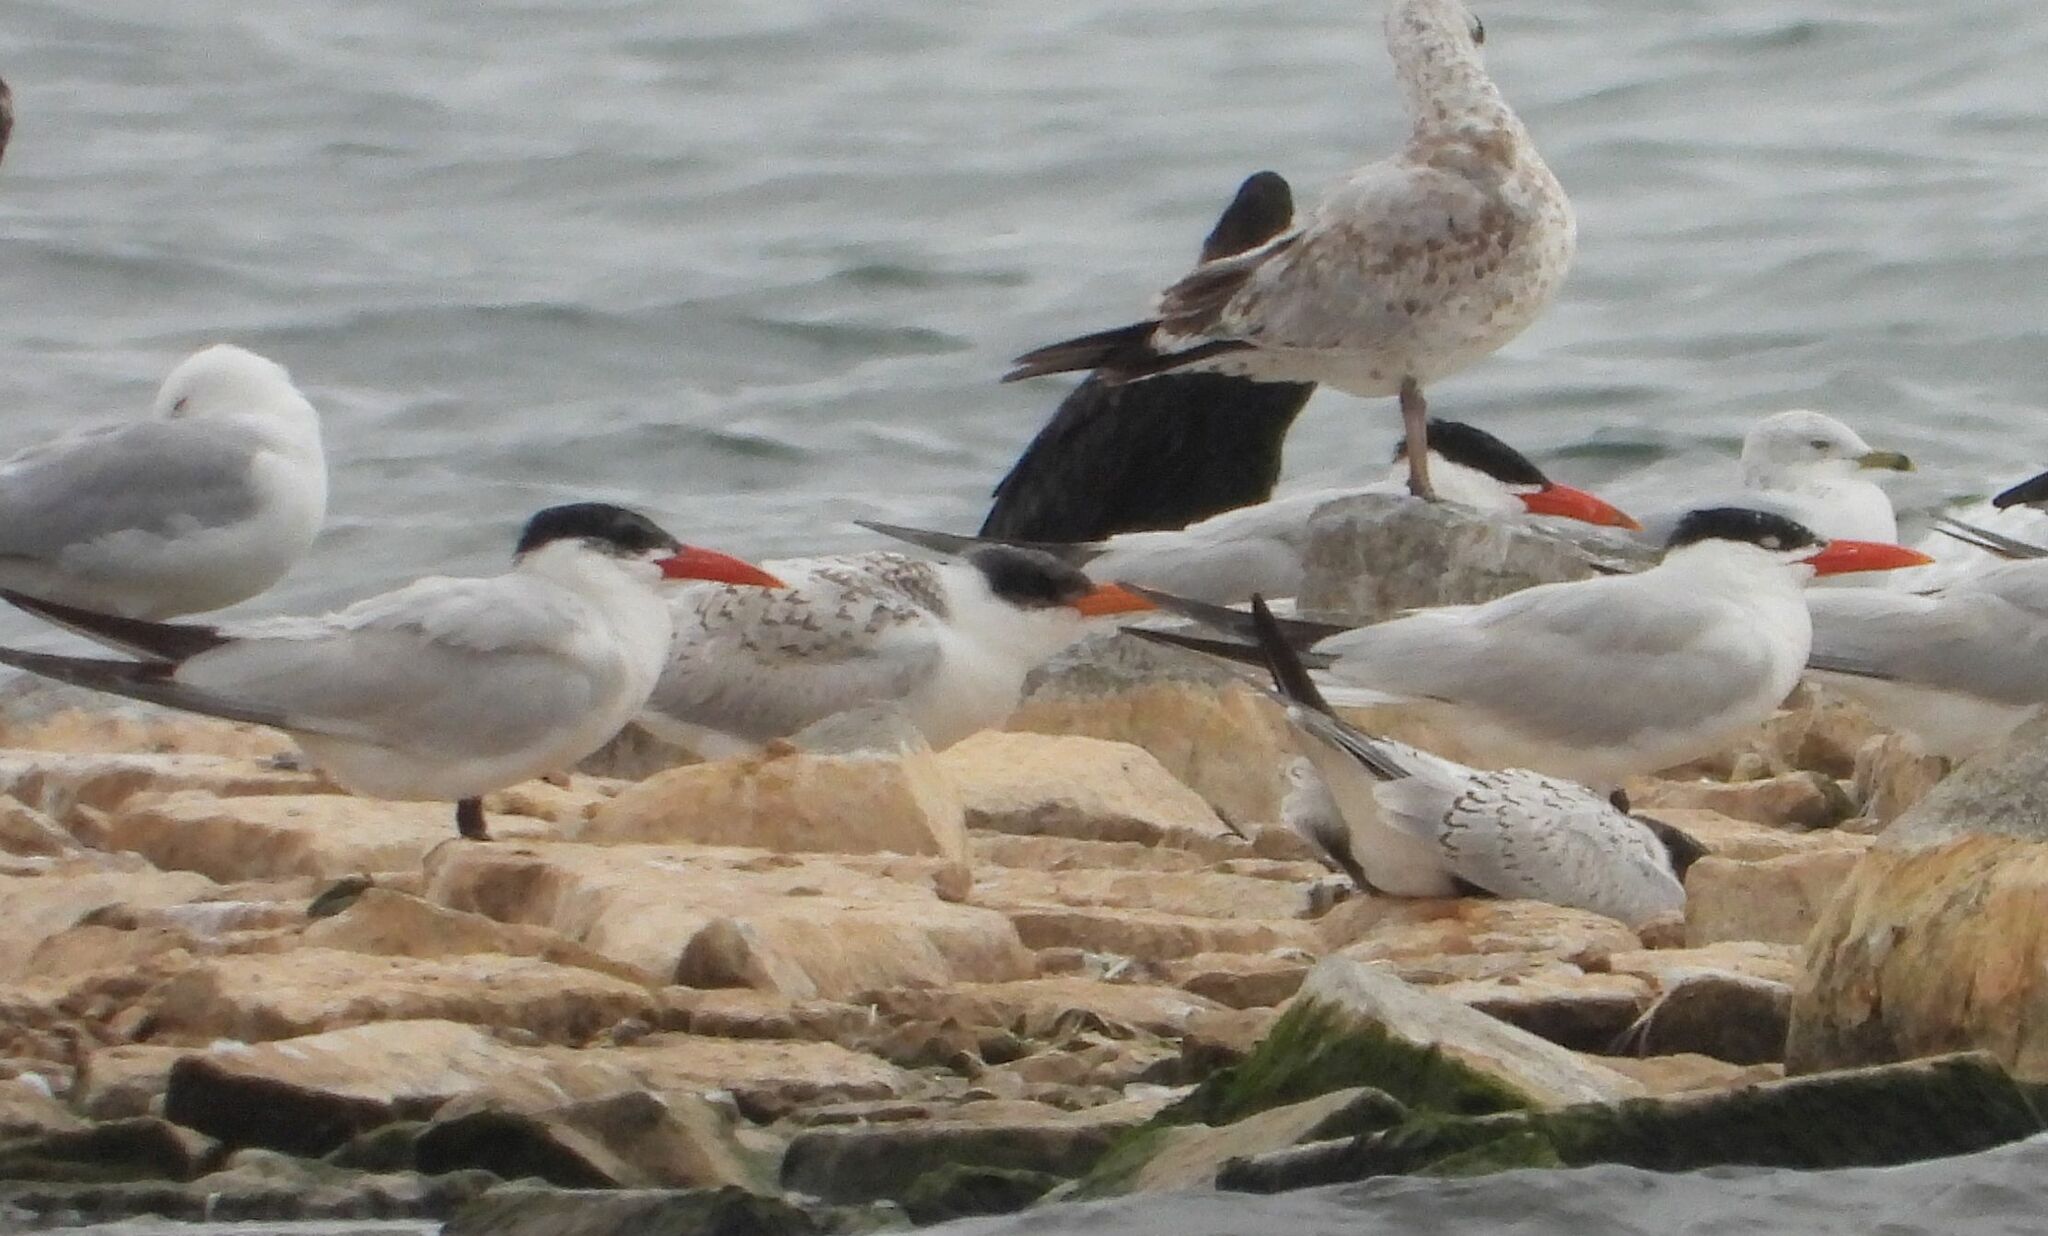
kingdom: Animalia
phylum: Chordata
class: Aves
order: Charadriiformes
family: Laridae
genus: Hydroprogne
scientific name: Hydroprogne caspia
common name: Caspian tern
